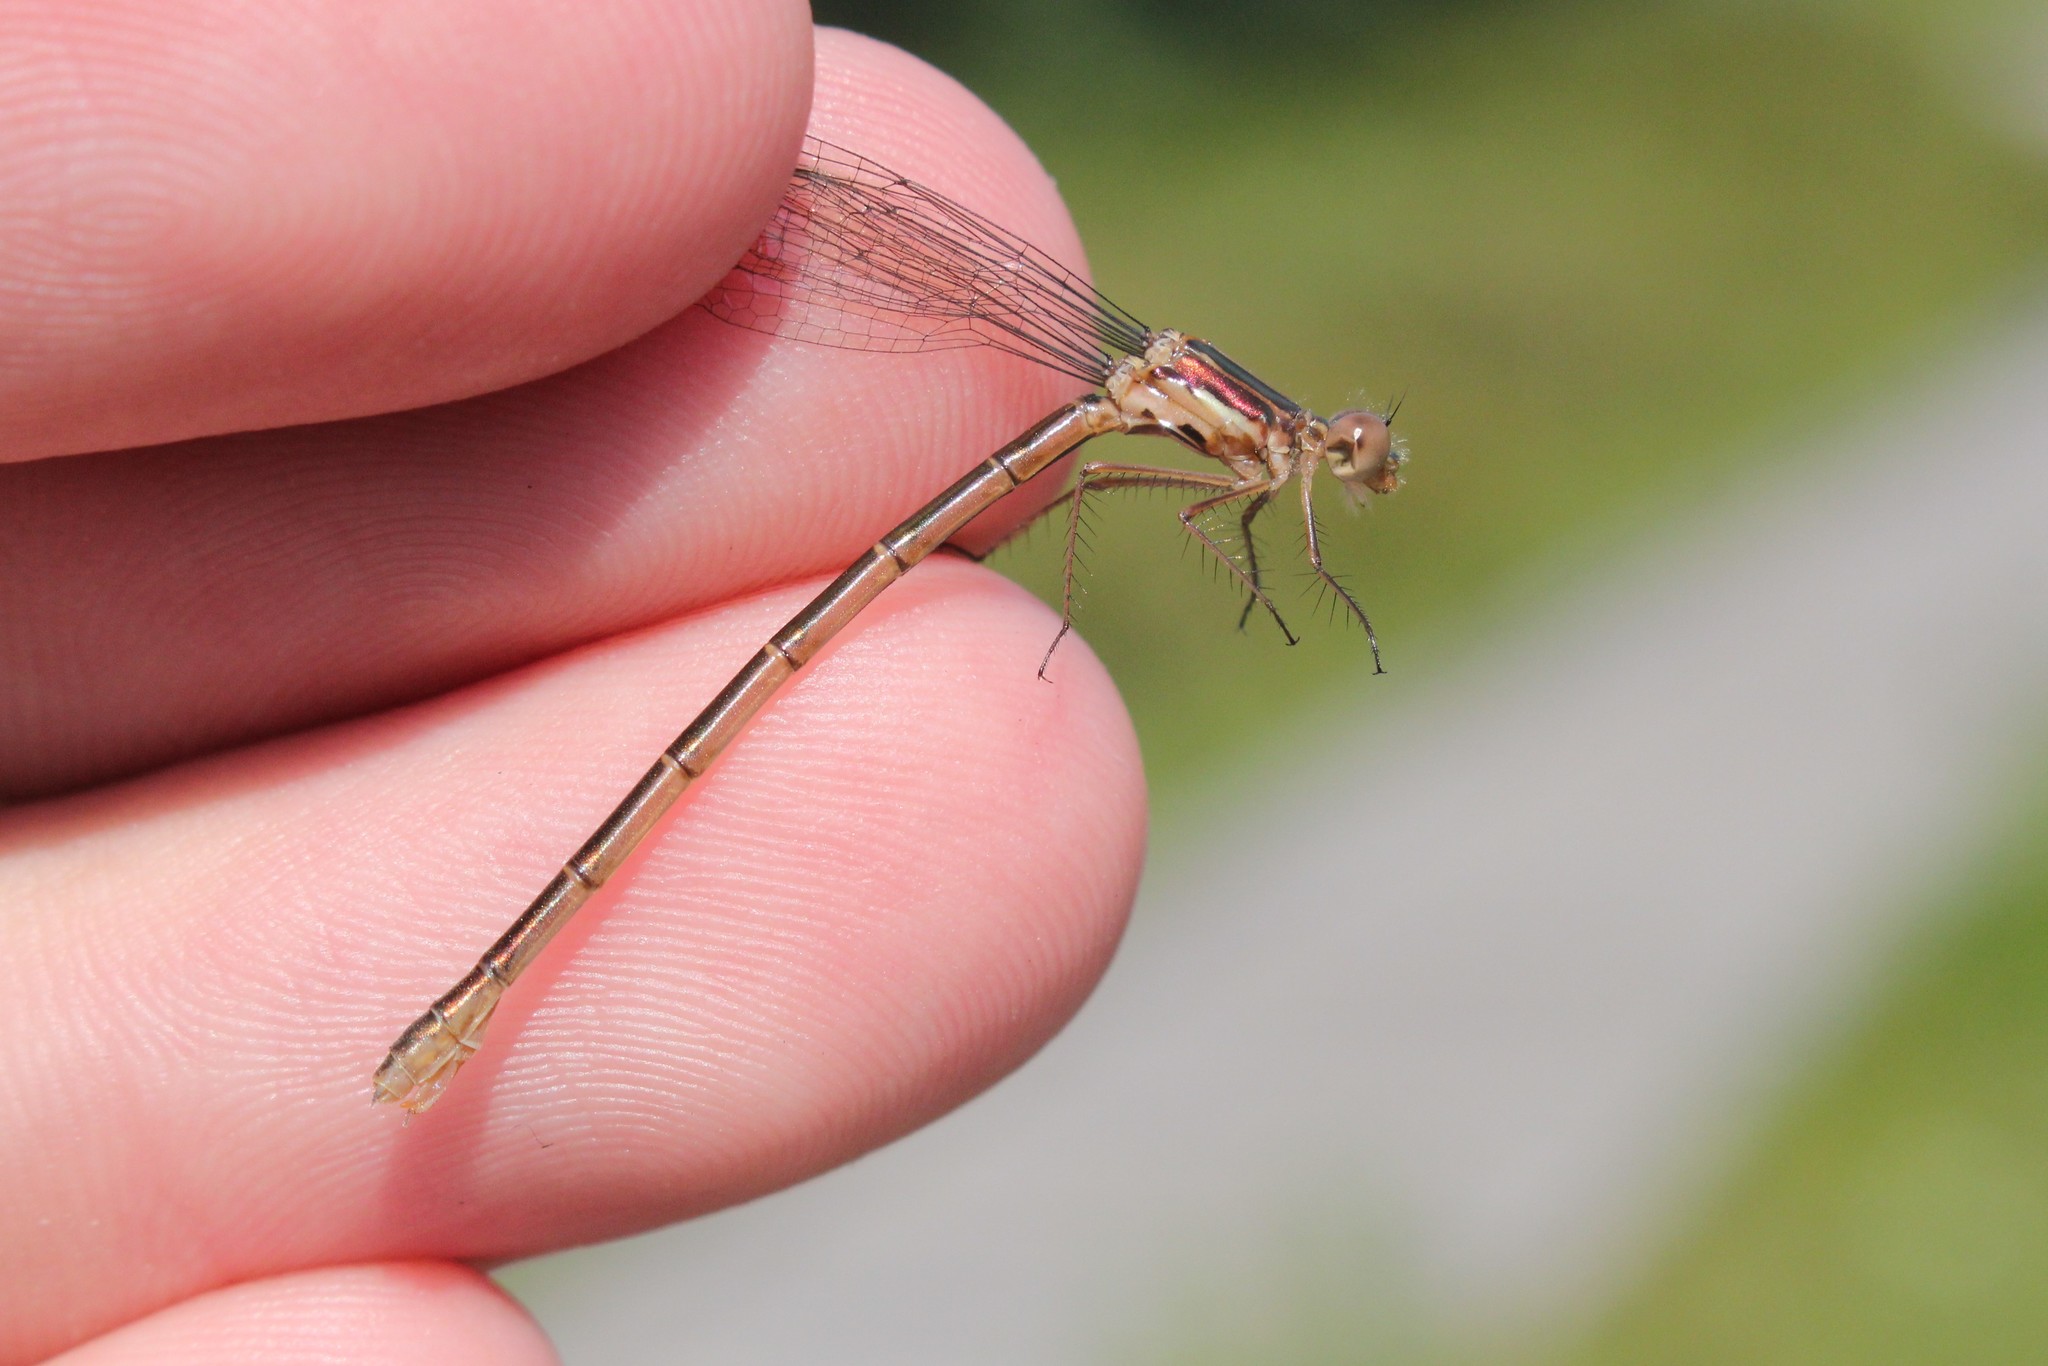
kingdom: Animalia
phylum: Arthropoda
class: Insecta
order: Odonata
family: Lestidae
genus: Lestes
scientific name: Lestes congener
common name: Spotted spreadwing
